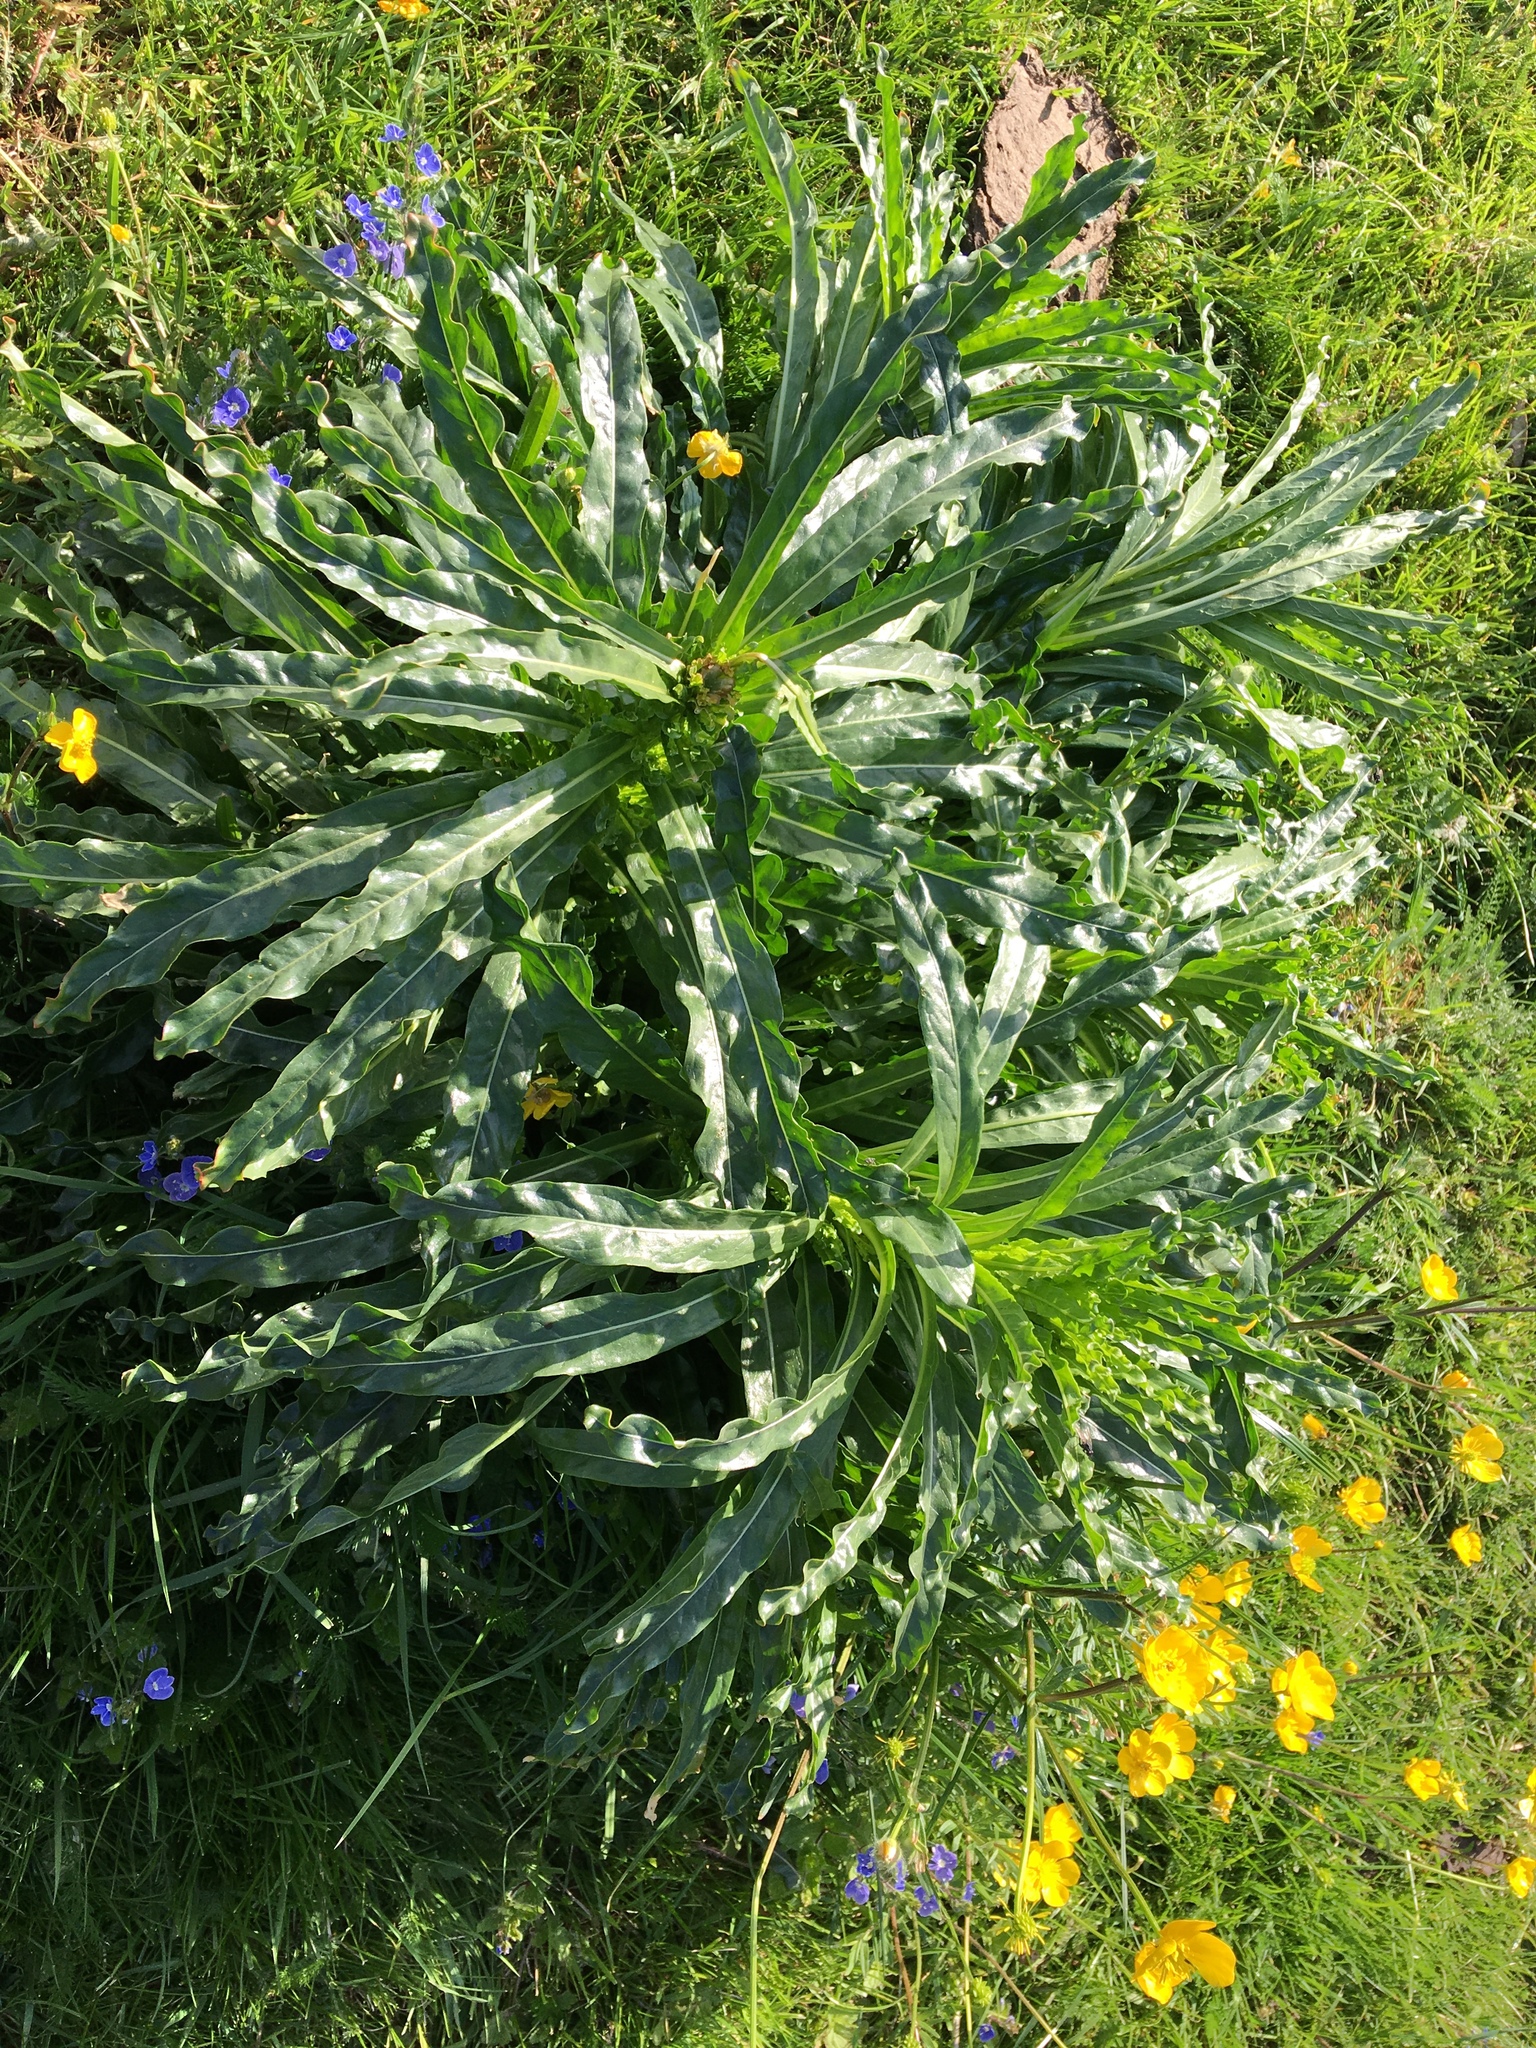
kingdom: Plantae
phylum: Tracheophyta
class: Magnoliopsida
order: Brassicales
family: Resedaceae
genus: Reseda
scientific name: Reseda luteola
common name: Weld
